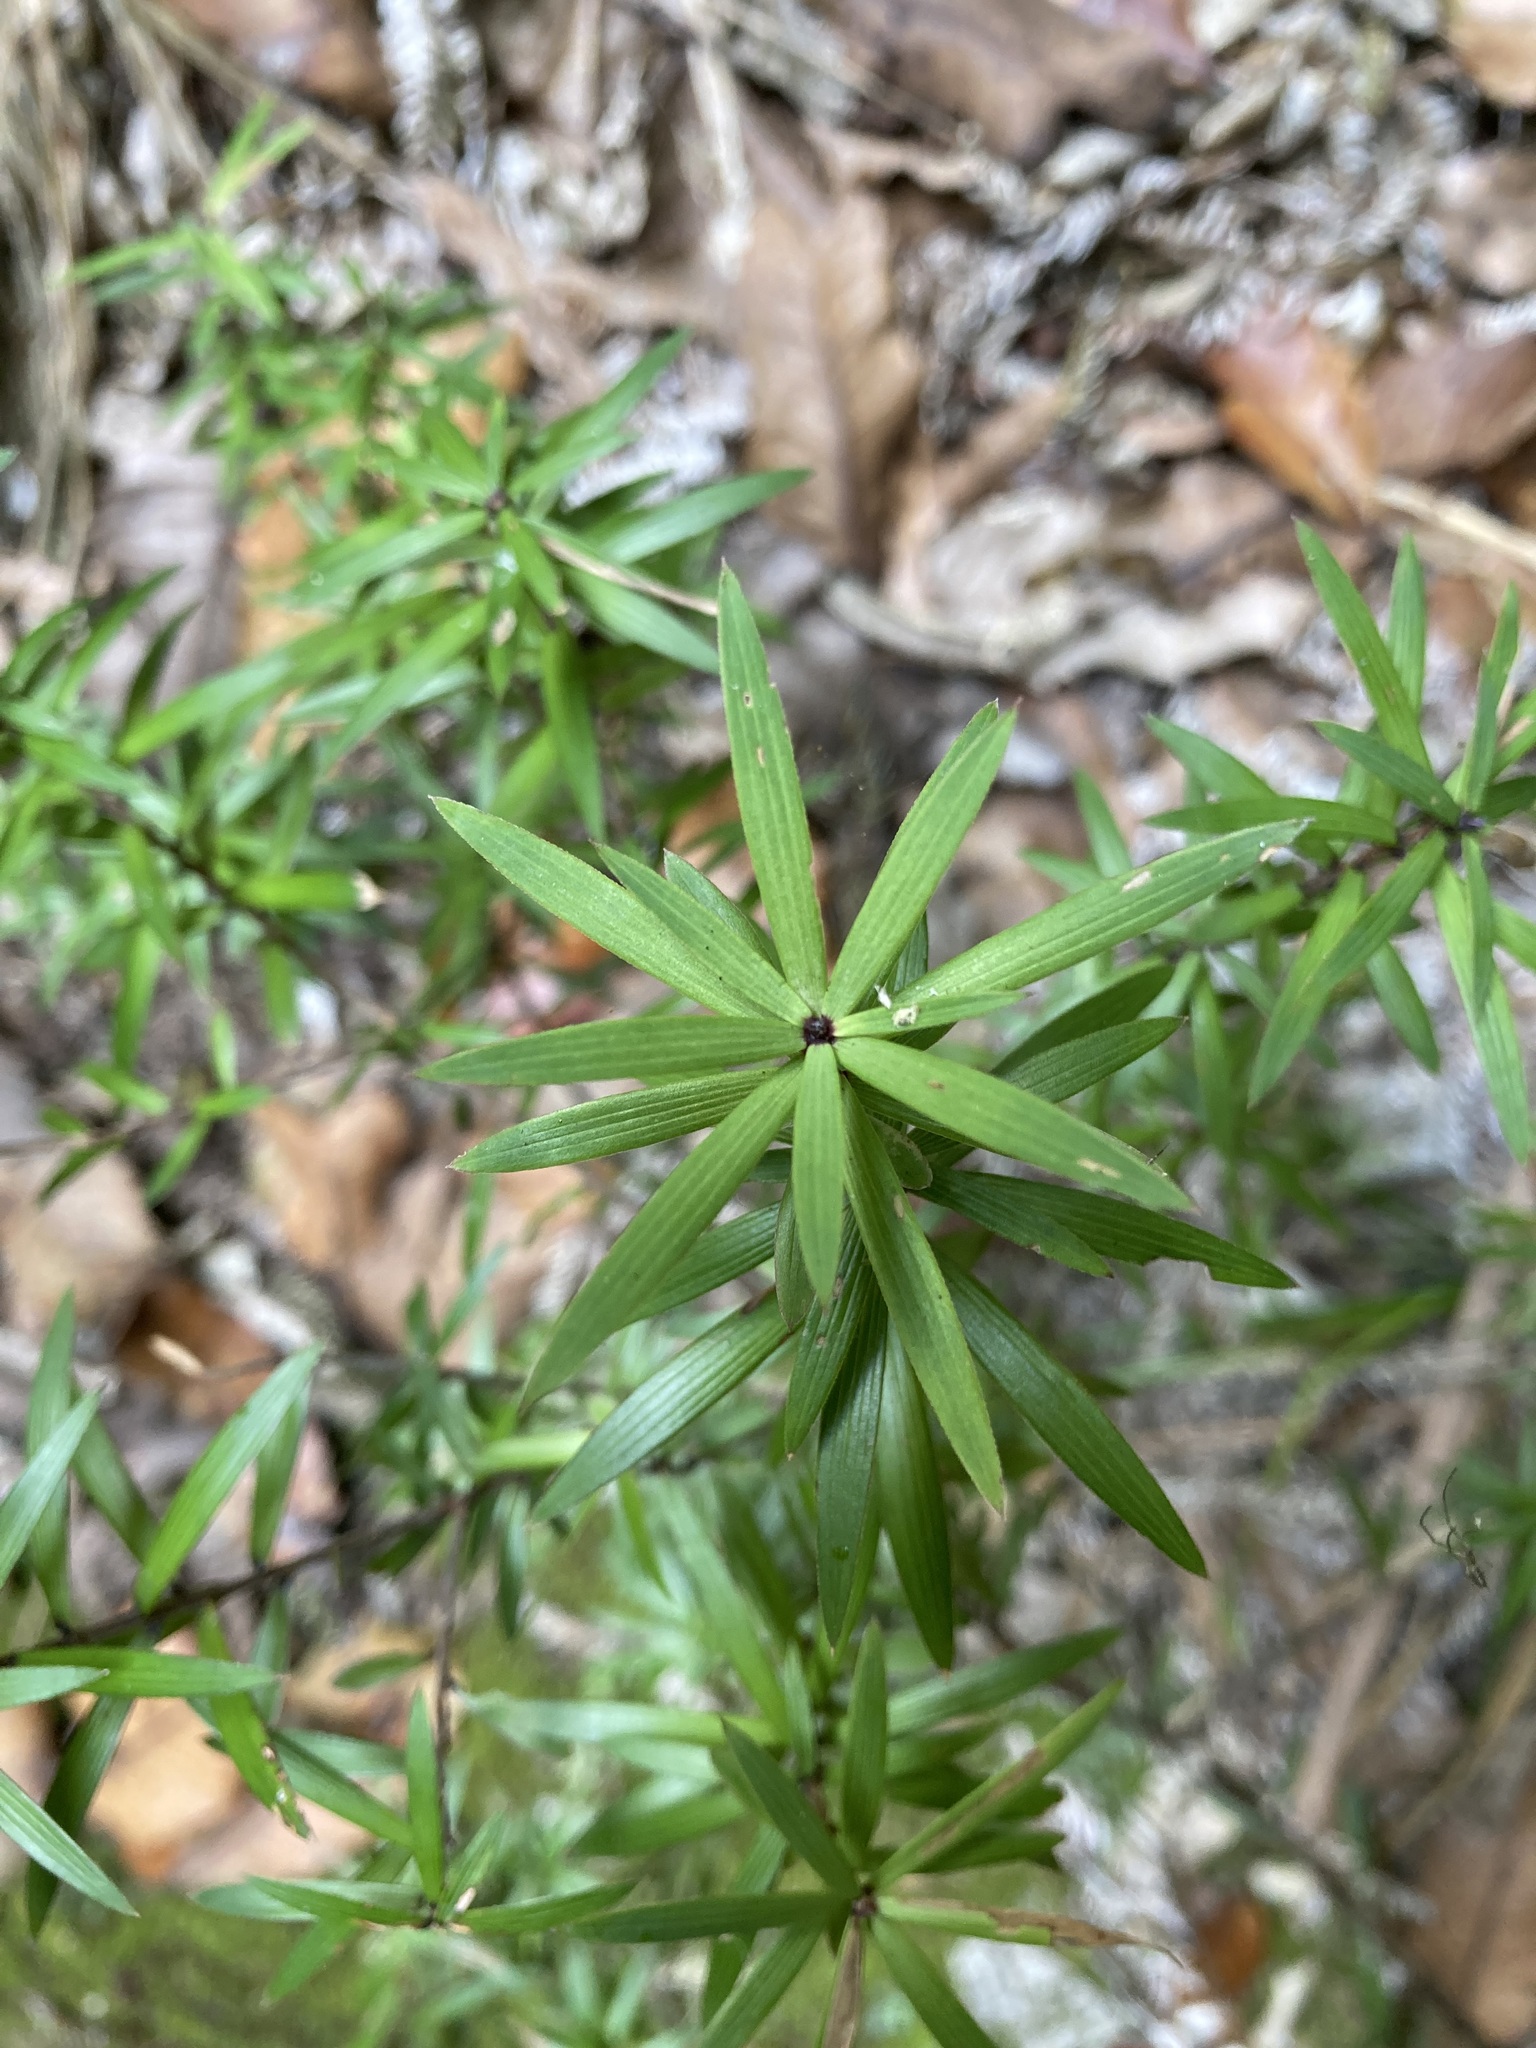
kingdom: Plantae
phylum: Tracheophyta
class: Magnoliopsida
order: Ericales
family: Ericaceae
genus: Leucopogon
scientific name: Leucopogon fasciculatus
